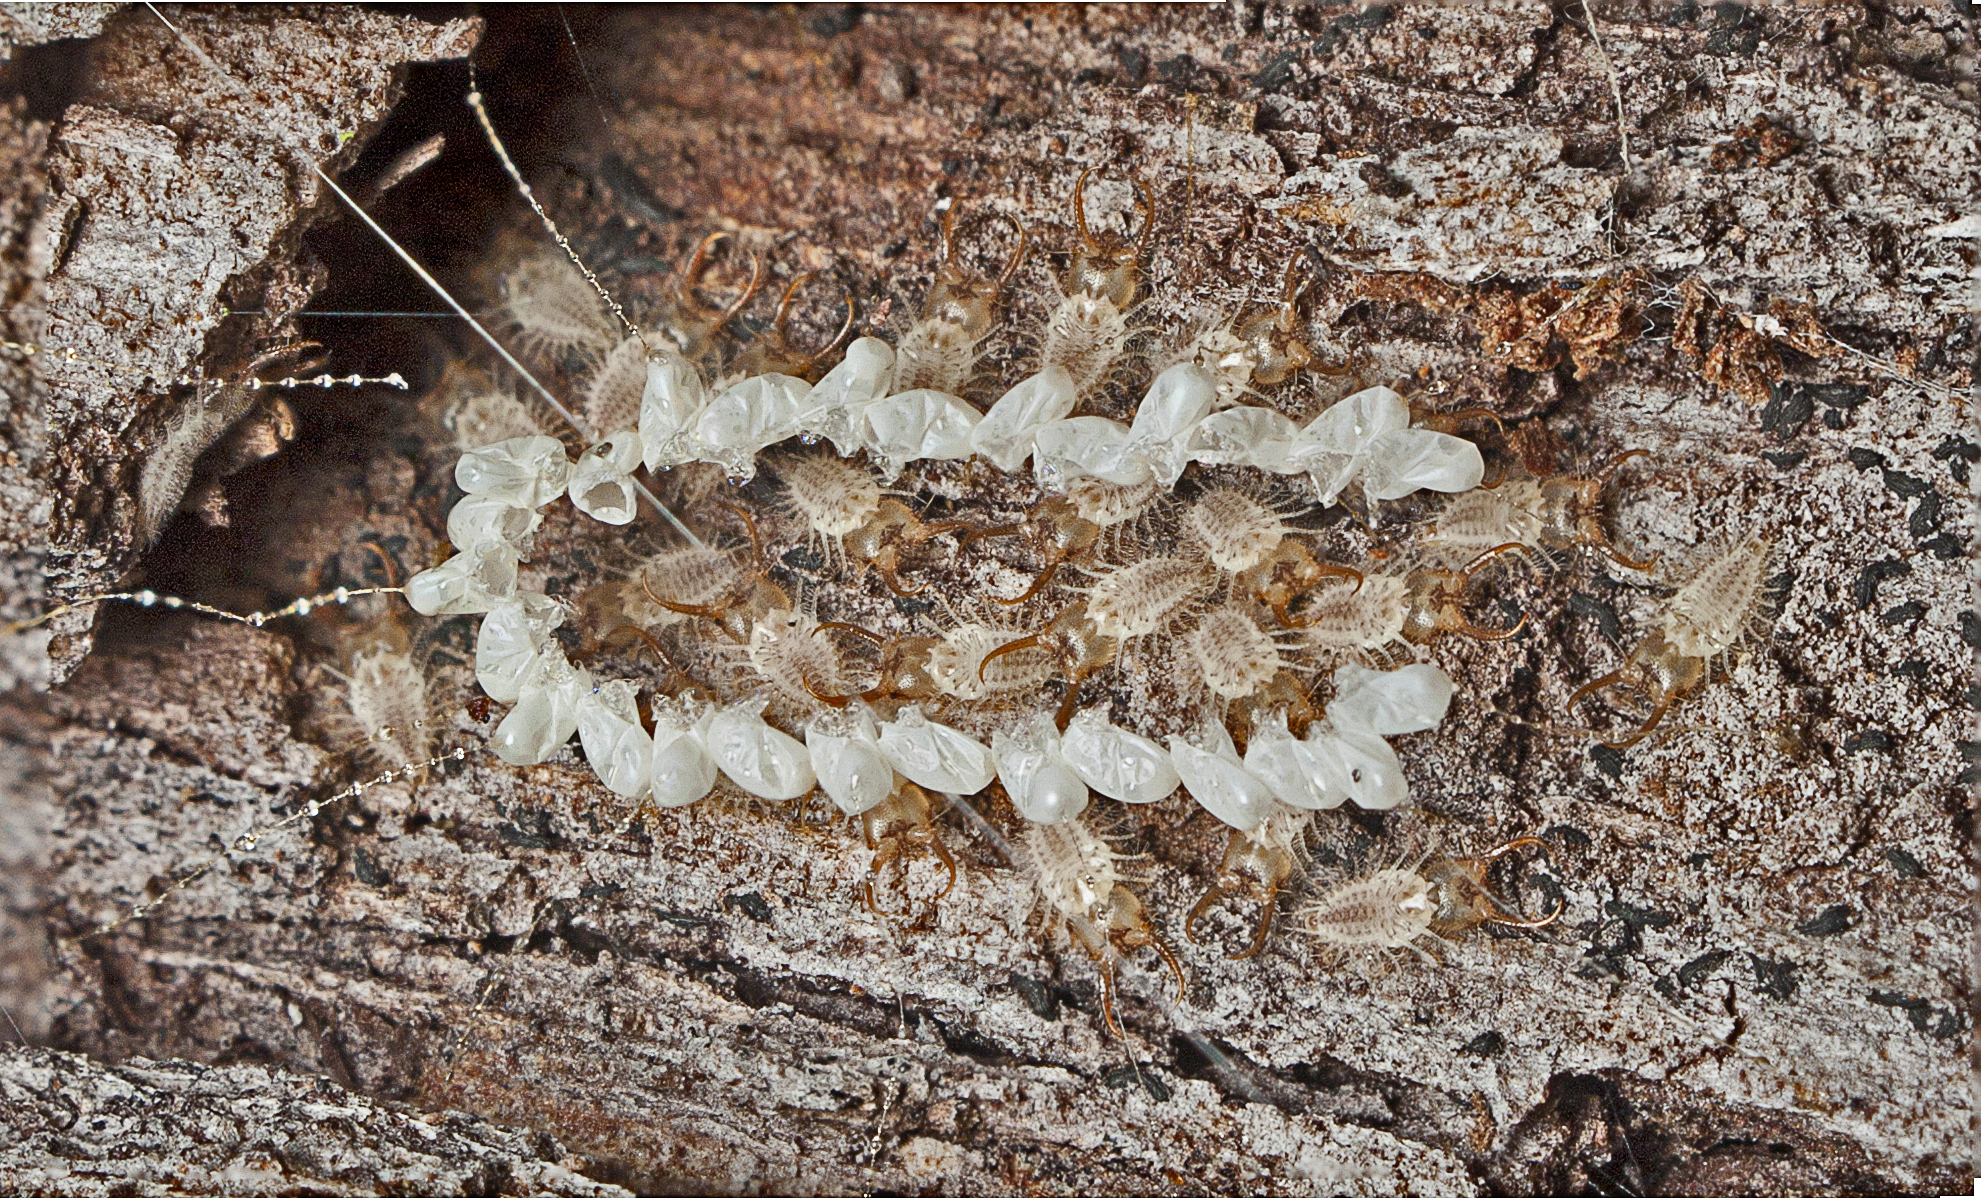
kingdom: Animalia
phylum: Arthropoda
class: Insecta
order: Neuroptera
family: Nymphidae
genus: Nymphes
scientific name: Nymphes myrmeleonoides
